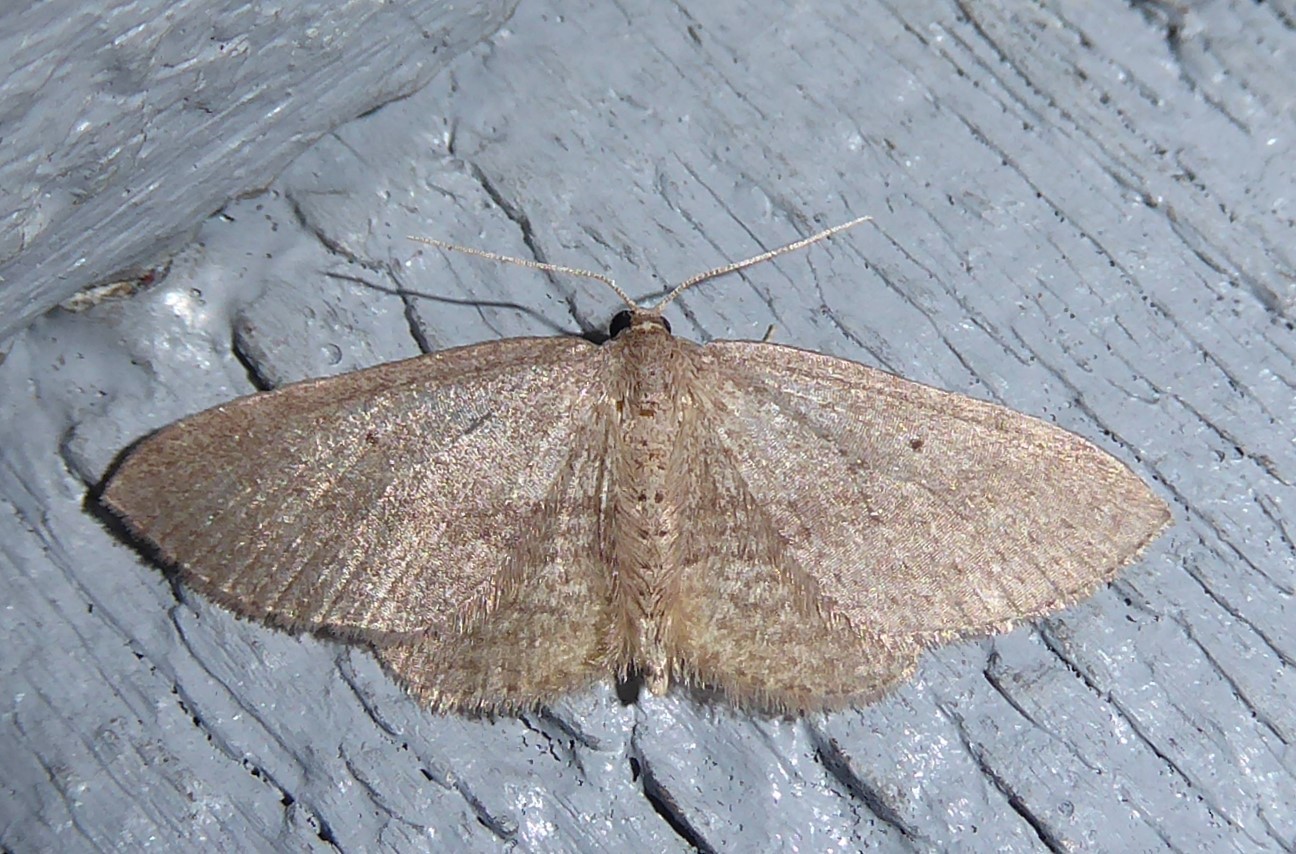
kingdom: Animalia
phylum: Arthropoda
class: Insecta
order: Lepidoptera
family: Geometridae
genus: Poecilasthena
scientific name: Poecilasthena schistaria
